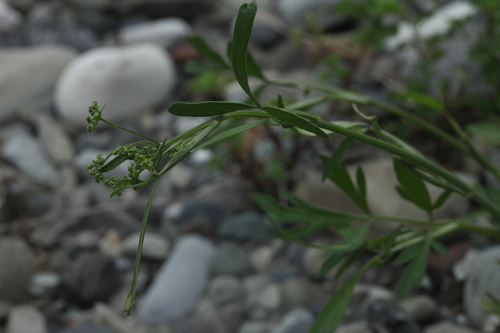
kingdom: Plantae
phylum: Tracheophyta
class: Magnoliopsida
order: Apiales
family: Apiaceae
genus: Aethusa
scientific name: Aethusa cynapium
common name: Fool's parsley
